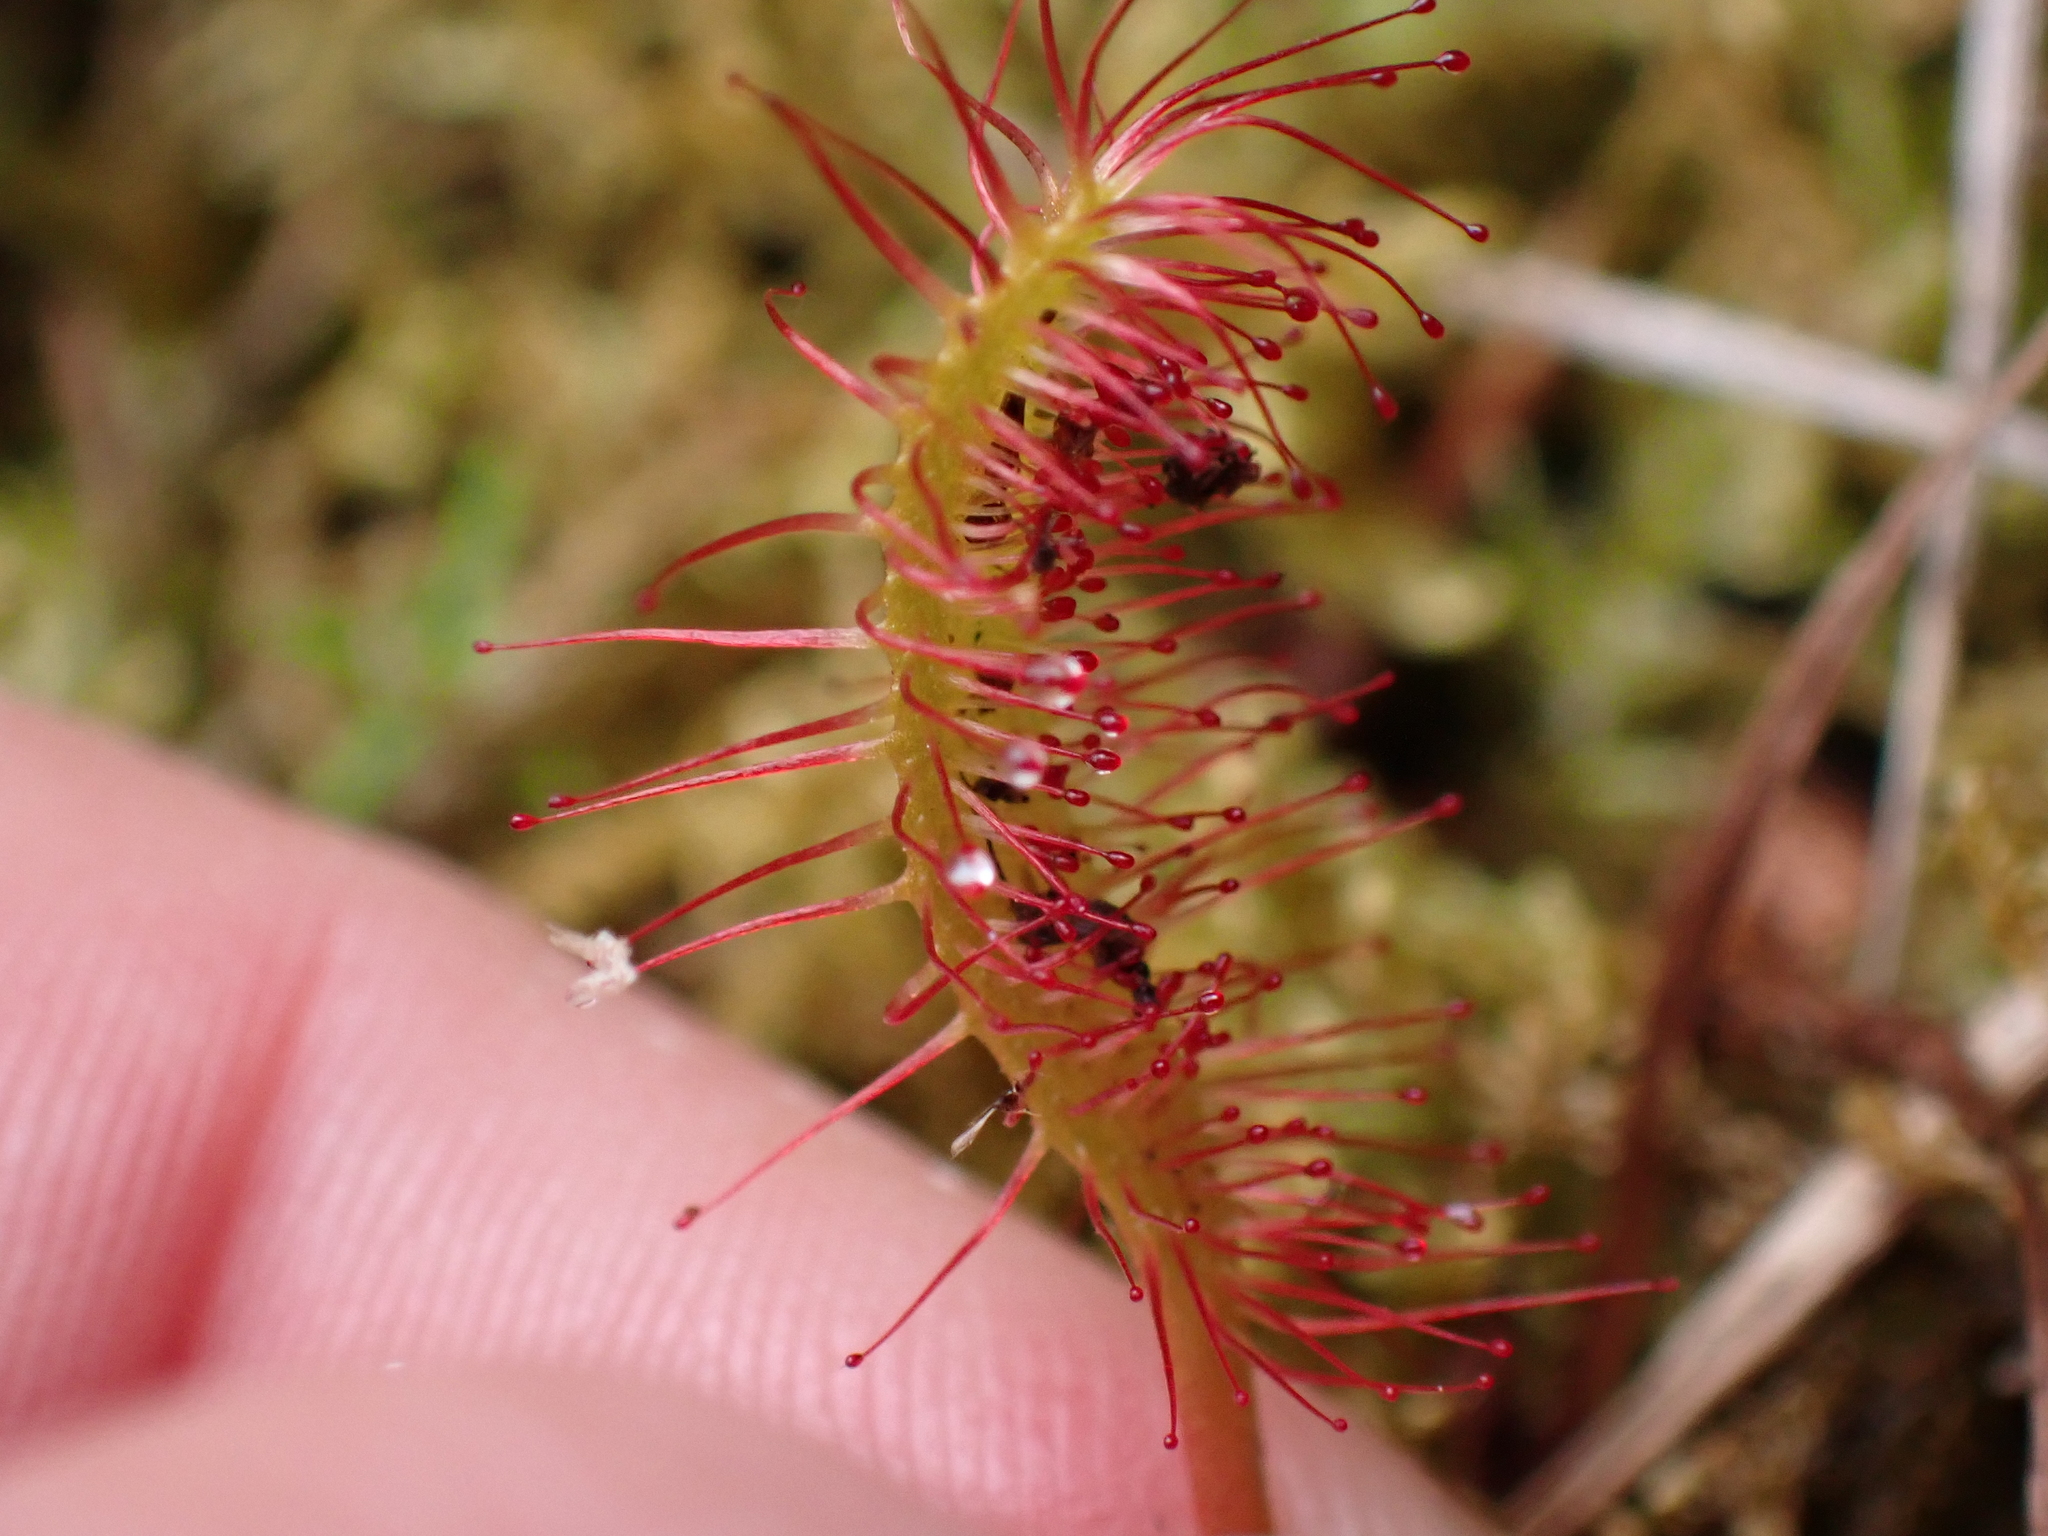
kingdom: Plantae
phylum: Tracheophyta
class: Magnoliopsida
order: Caryophyllales
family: Droseraceae
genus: Drosera
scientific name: Drosera anglica
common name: Great sundew
